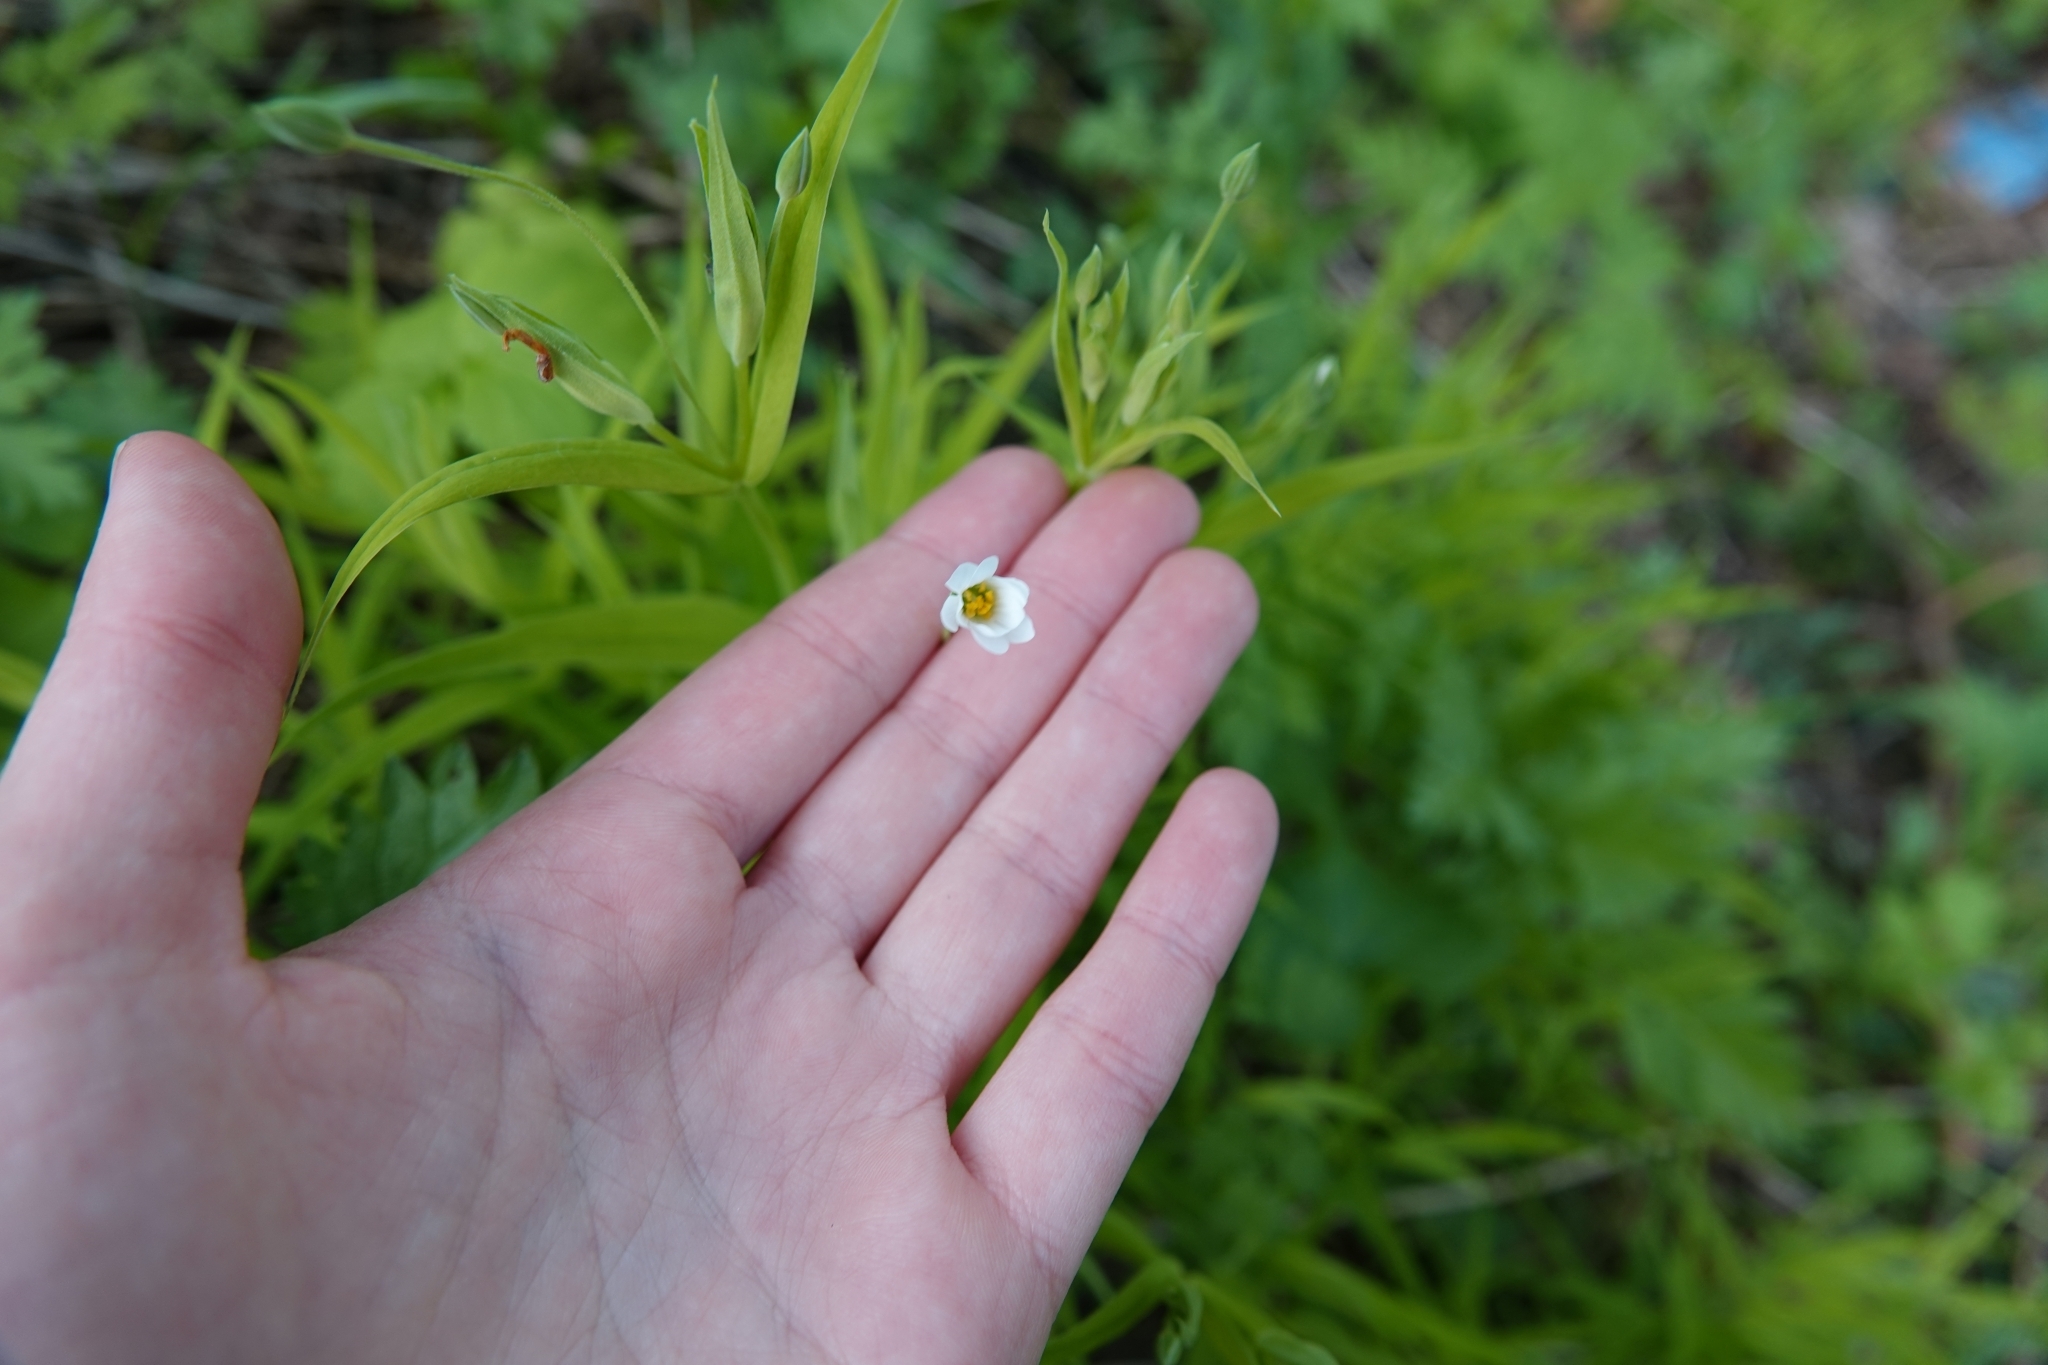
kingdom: Plantae
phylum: Tracheophyta
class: Magnoliopsida
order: Caryophyllales
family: Caryophyllaceae
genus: Rabelera
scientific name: Rabelera holostea
